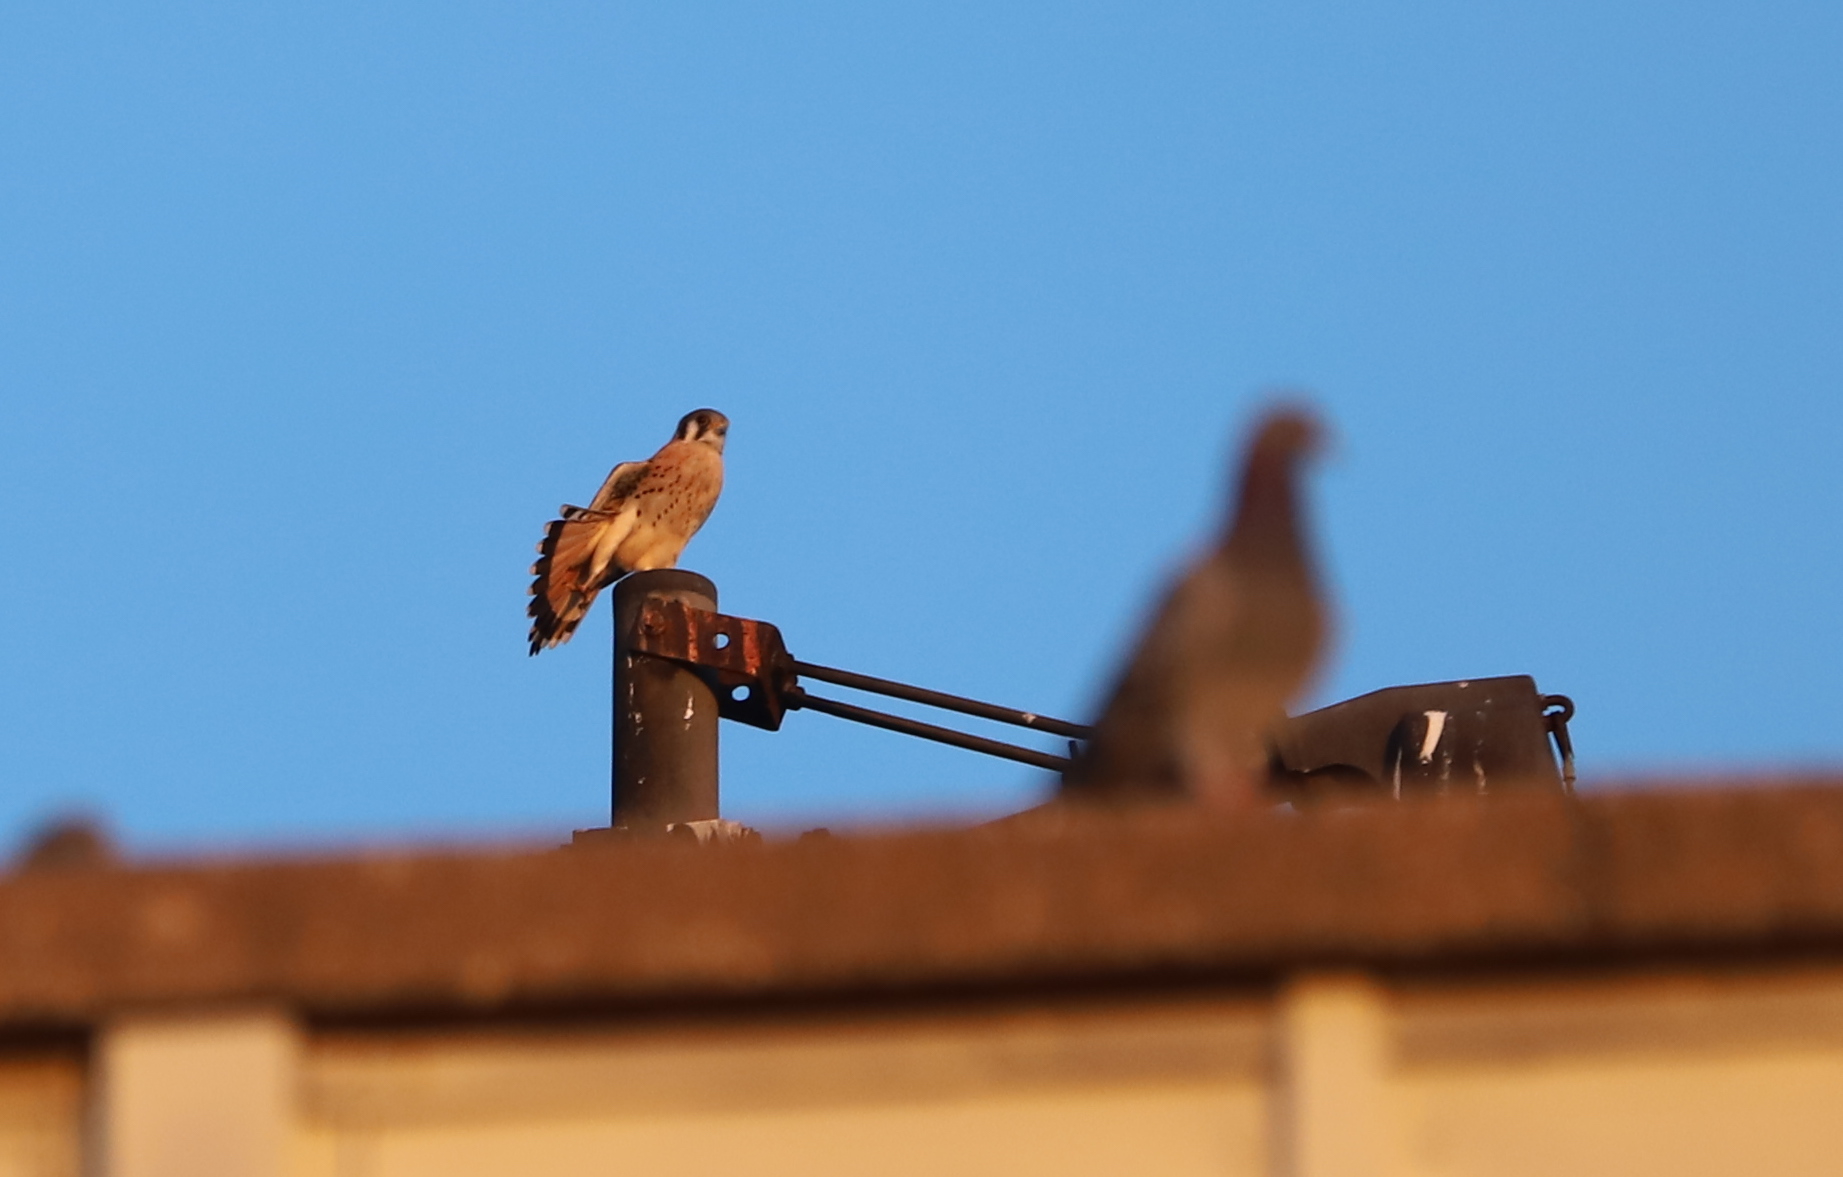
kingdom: Animalia
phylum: Chordata
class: Aves
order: Falconiformes
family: Falconidae
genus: Falco
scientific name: Falco sparverius
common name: American kestrel
